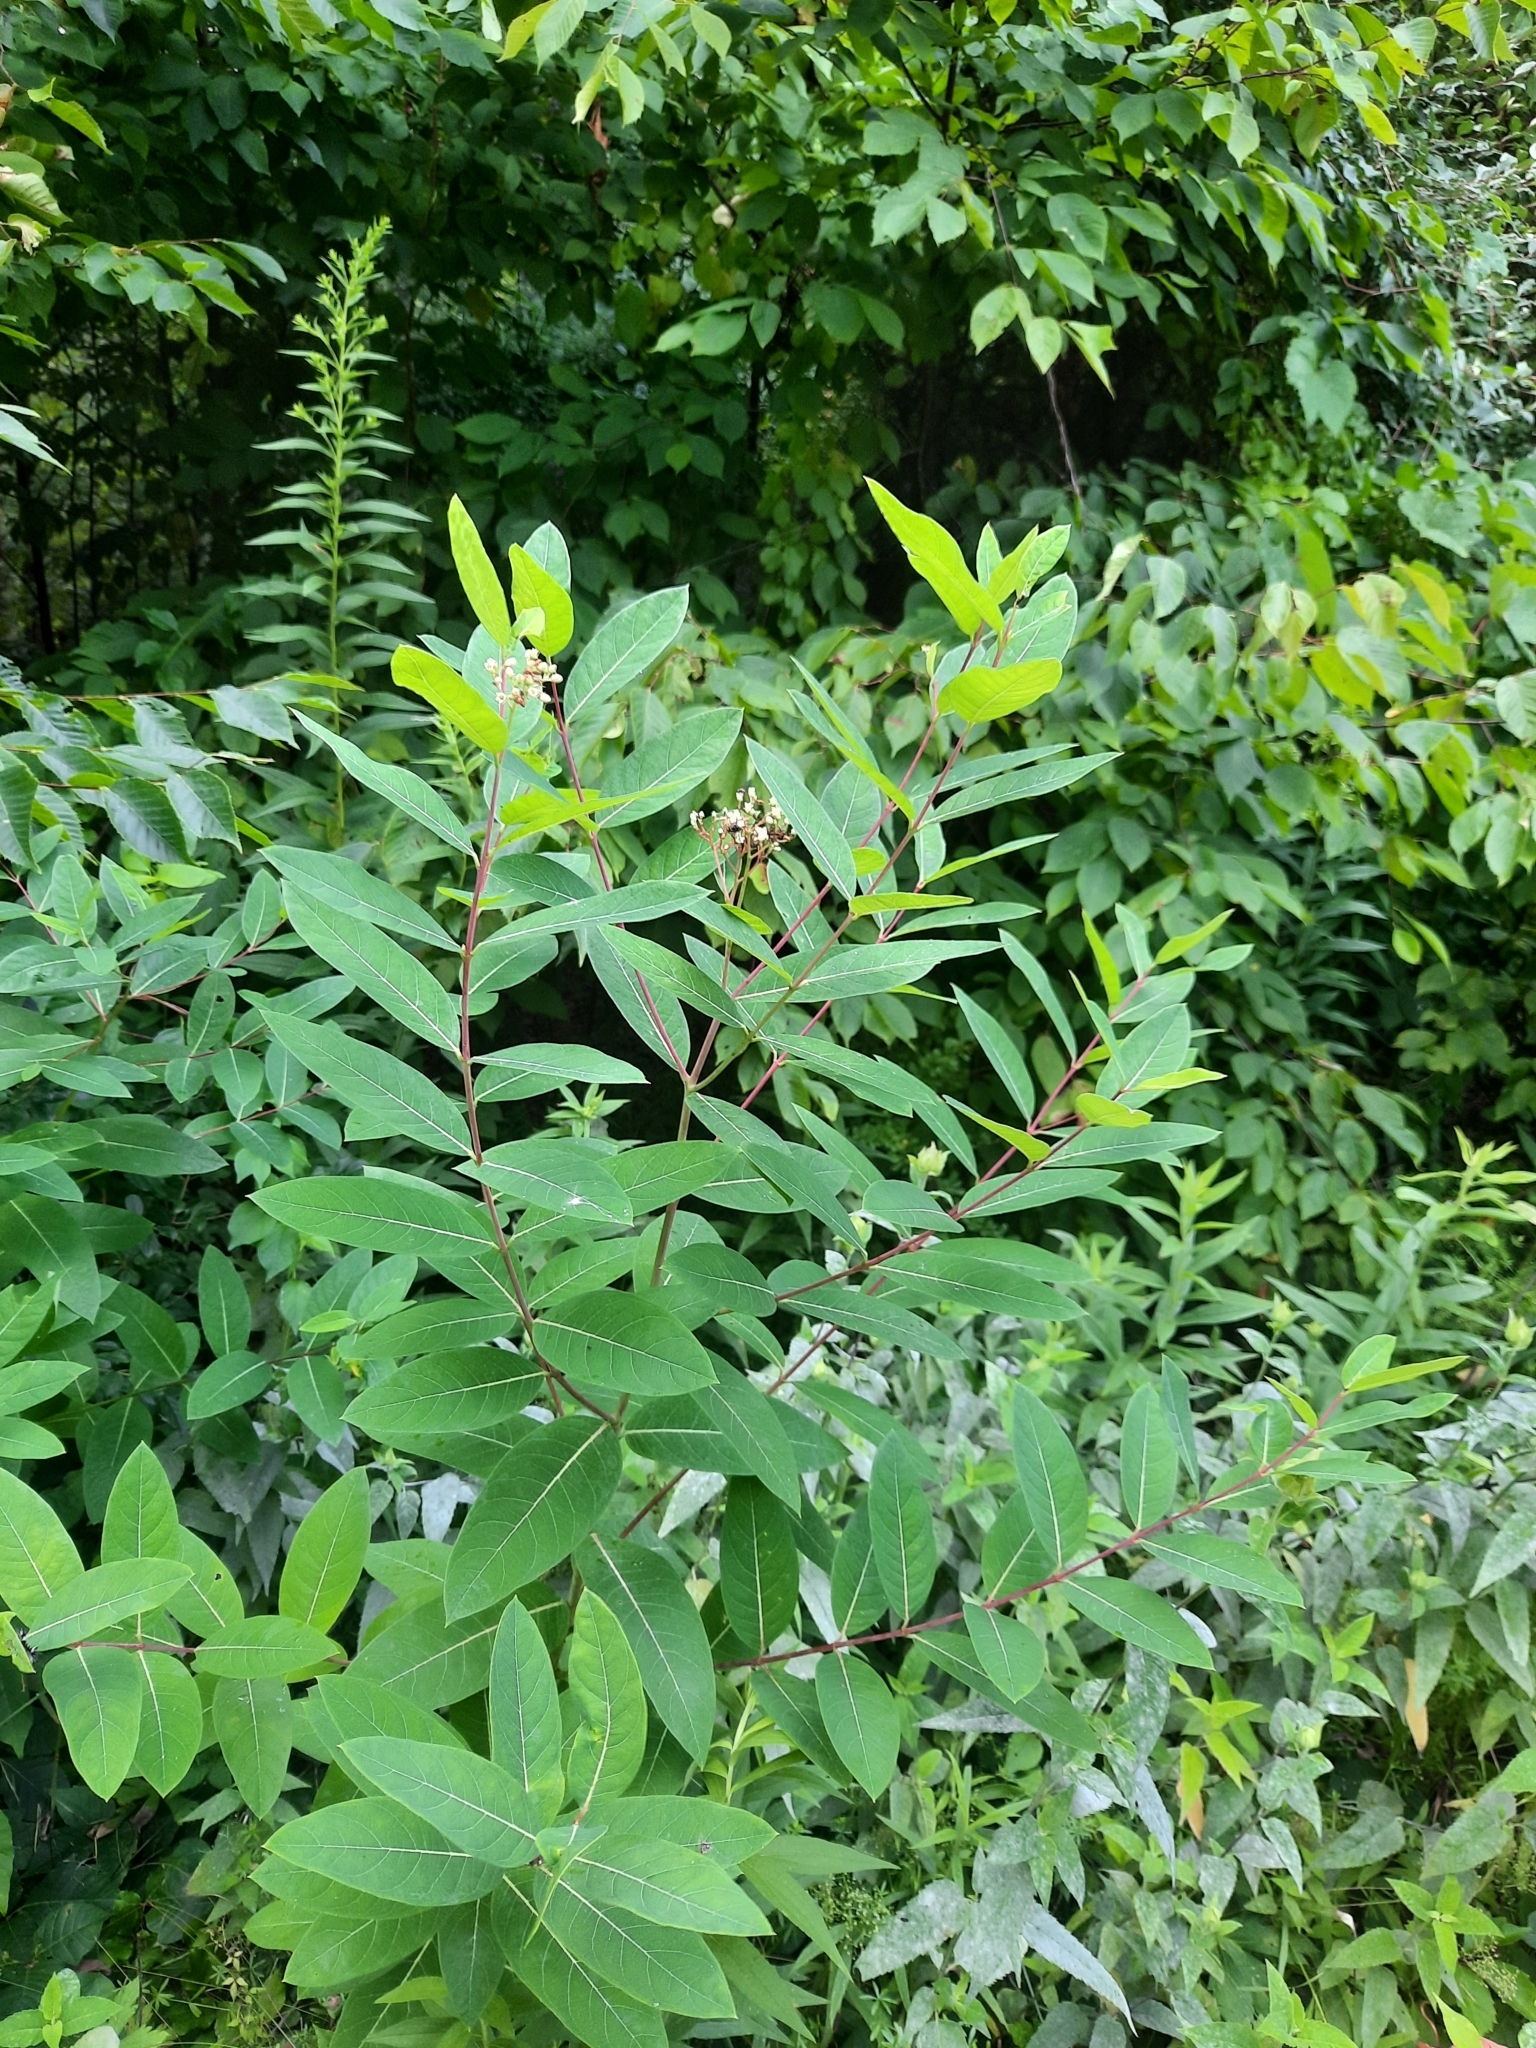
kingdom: Plantae
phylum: Tracheophyta
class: Magnoliopsida
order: Gentianales
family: Apocynaceae
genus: Apocynum
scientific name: Apocynum cannabinum
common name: Hemp dogbane
